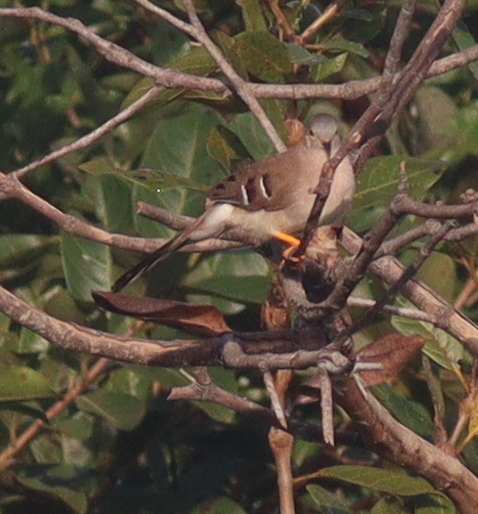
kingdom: Animalia
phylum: Chordata
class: Aves
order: Columbiformes
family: Columbidae
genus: Uropelia
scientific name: Uropelia campestris
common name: Long-tailed ground dove
